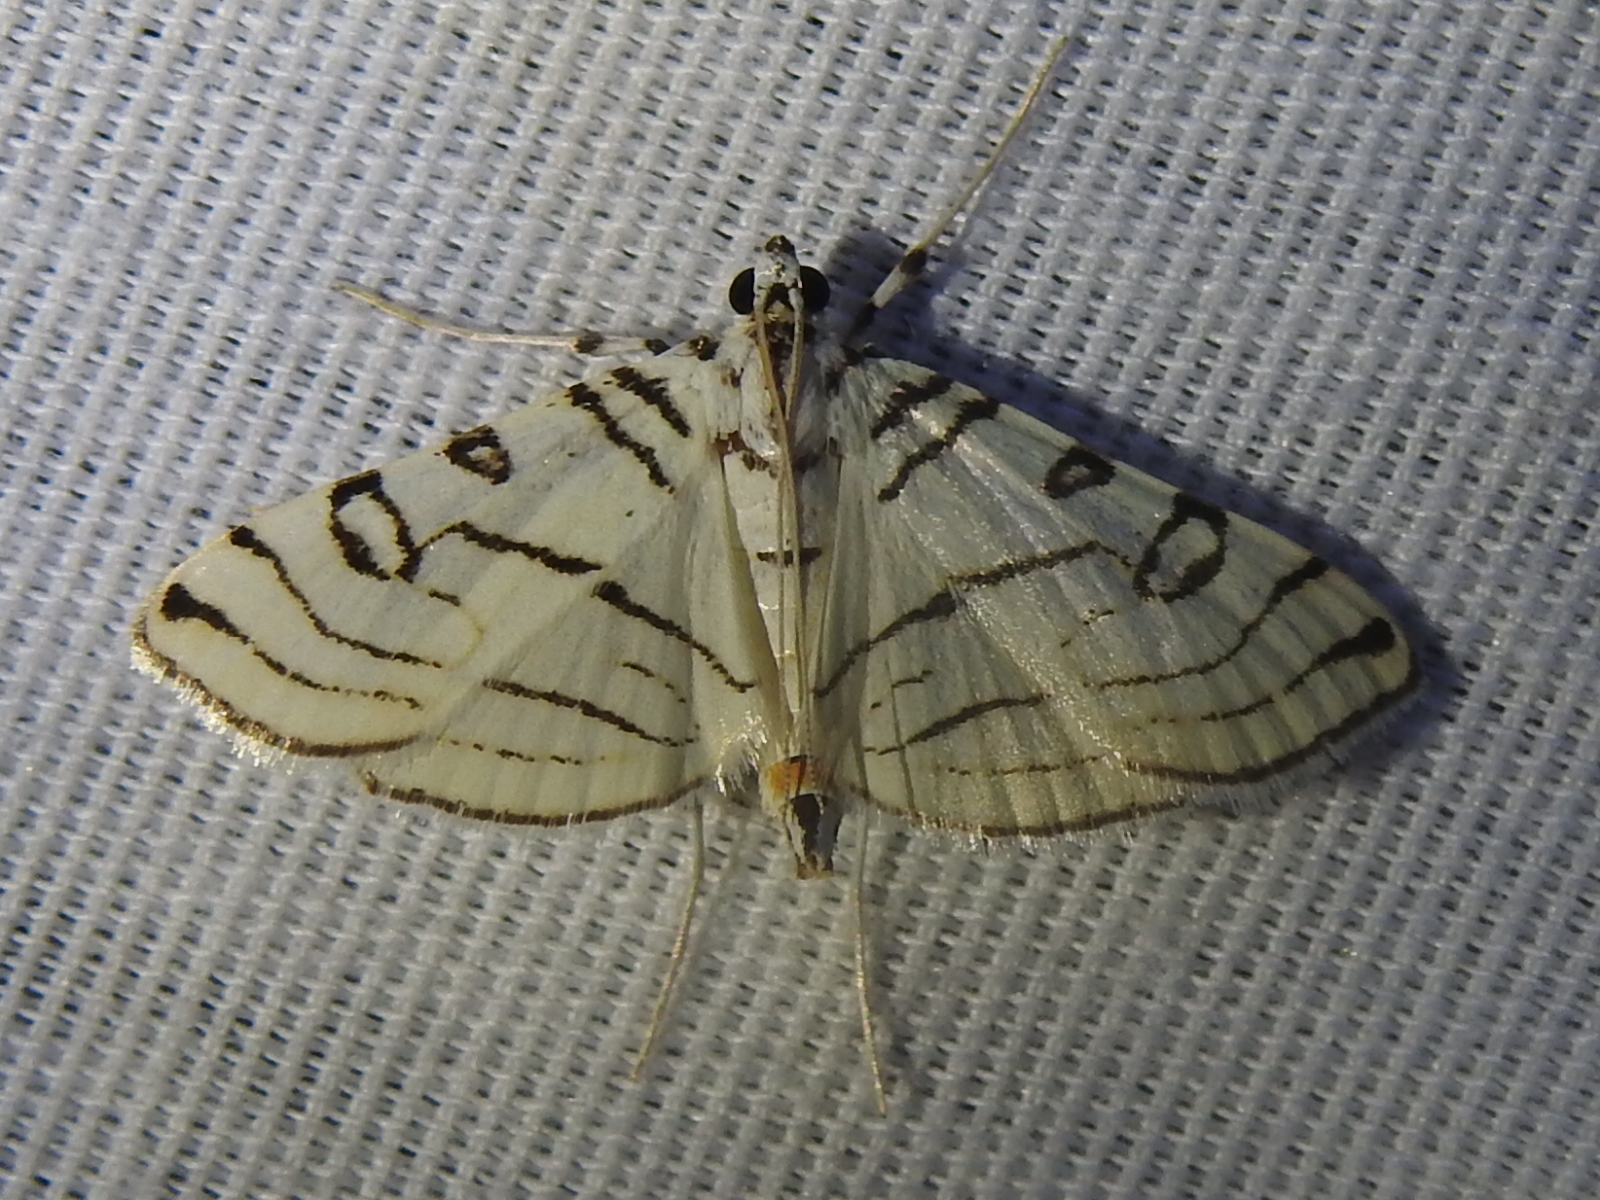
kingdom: Animalia
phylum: Arthropoda
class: Insecta
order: Lepidoptera
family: Crambidae
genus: Conchylodes
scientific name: Conchylodes concinnalis
